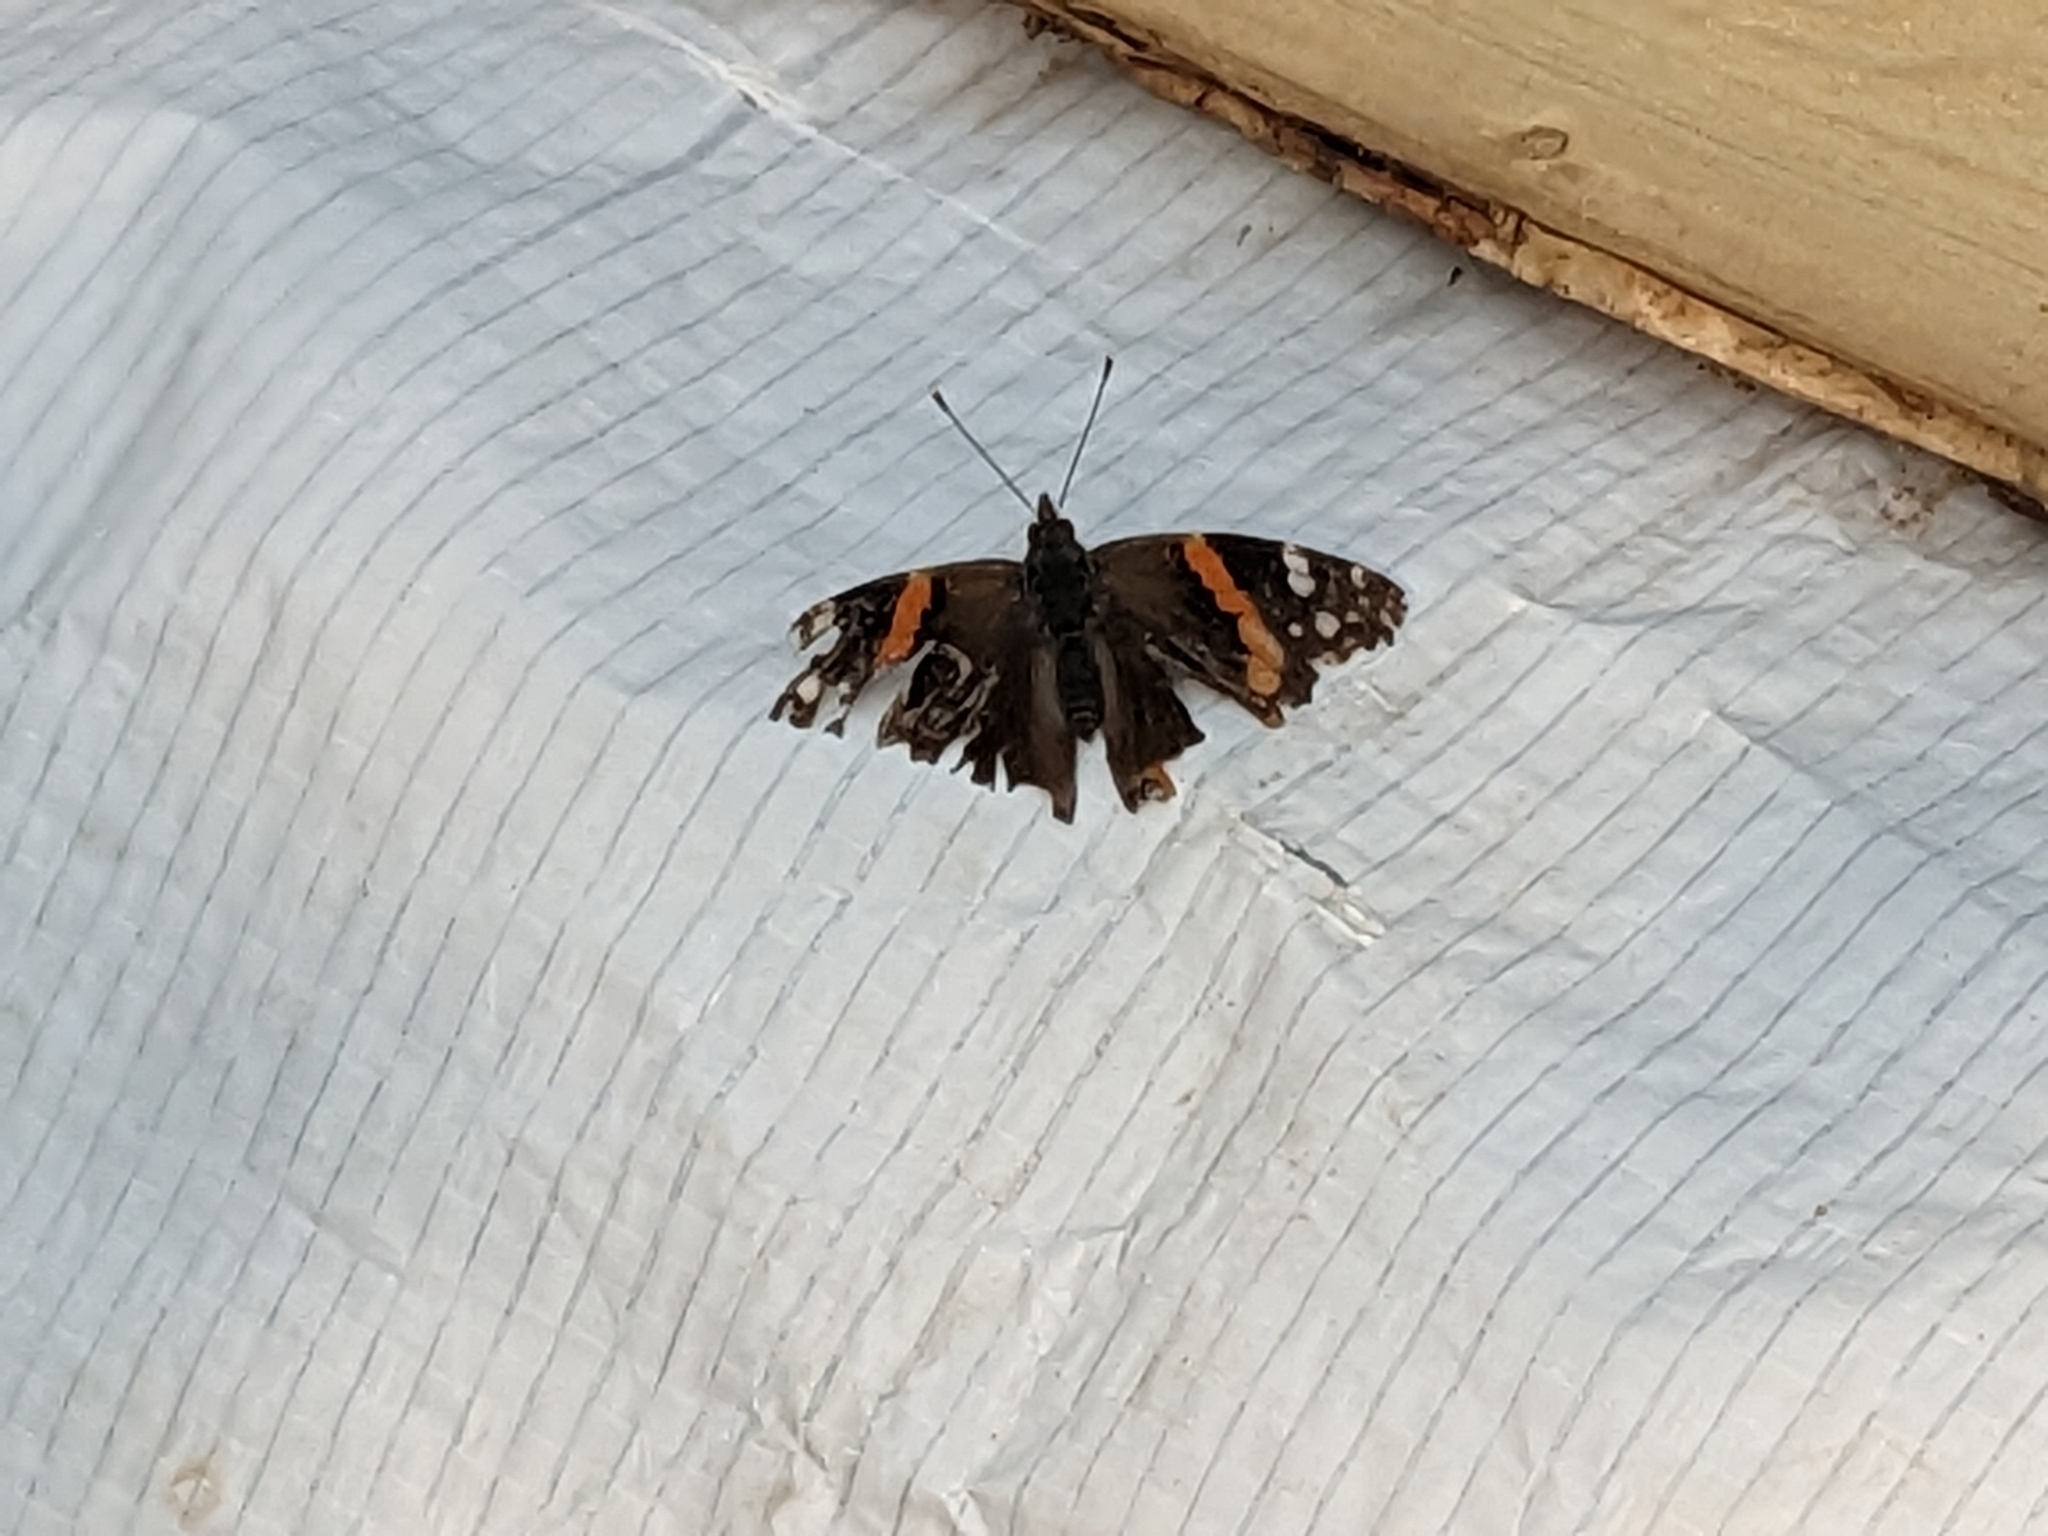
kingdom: Animalia
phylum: Arthropoda
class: Insecta
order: Lepidoptera
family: Nymphalidae
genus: Vanessa
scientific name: Vanessa atalanta
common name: Red admiral
